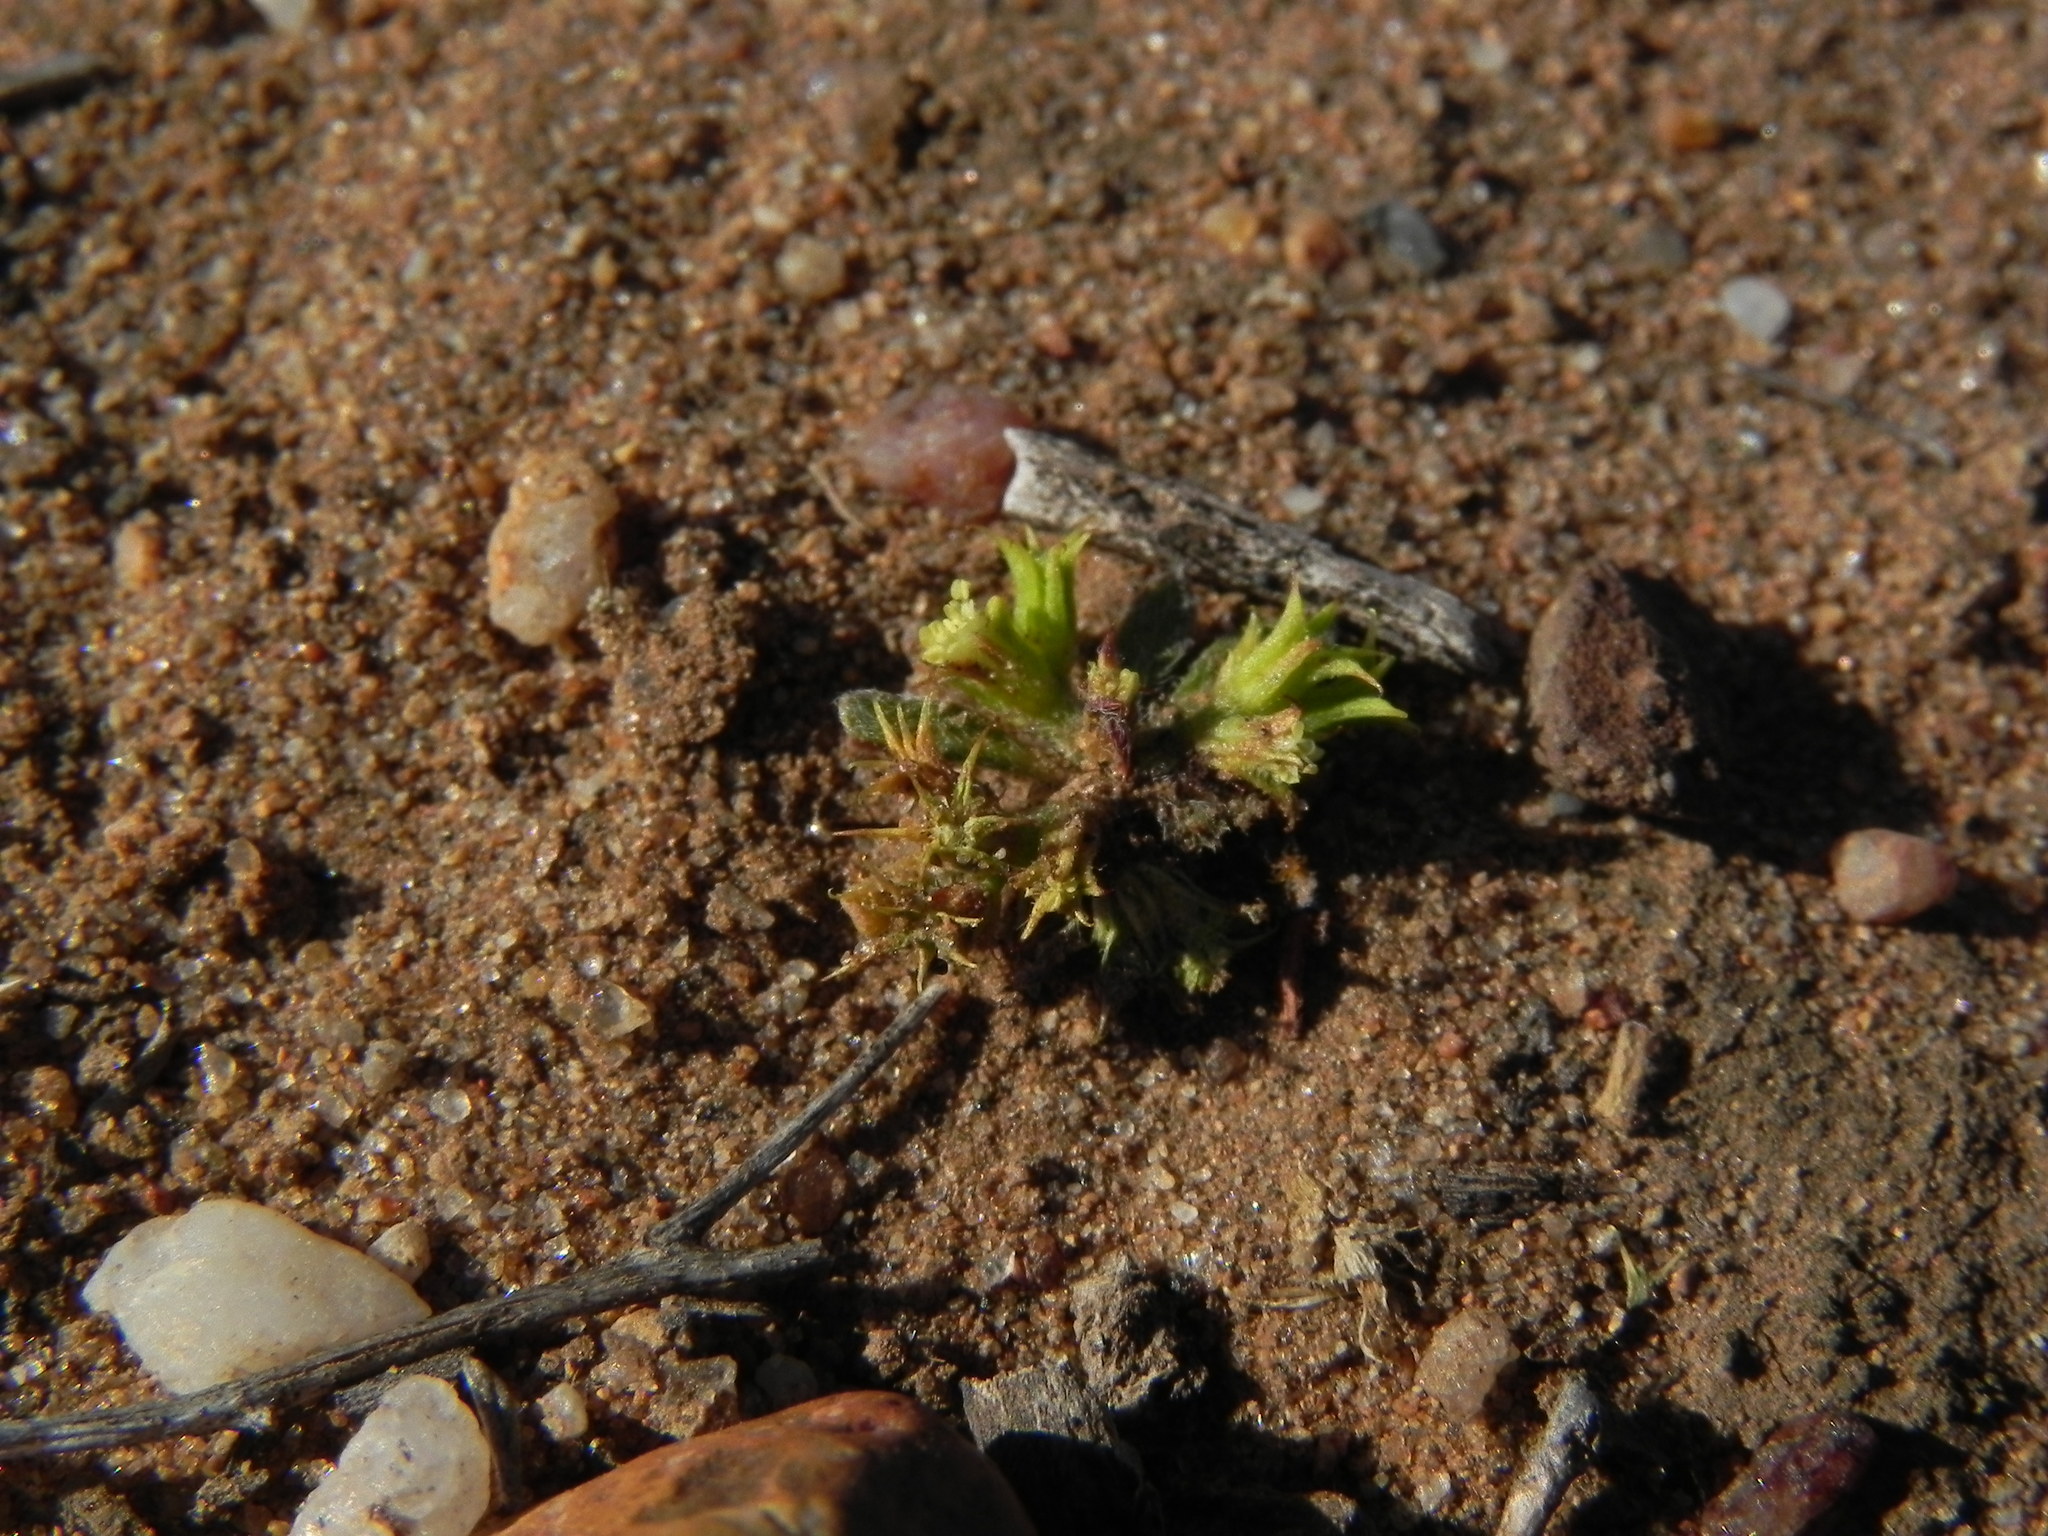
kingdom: Plantae
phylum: Tracheophyta
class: Magnoliopsida
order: Caryophyllales
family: Polygonaceae
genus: Chorizanthe
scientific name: Chorizanthe procumbens
